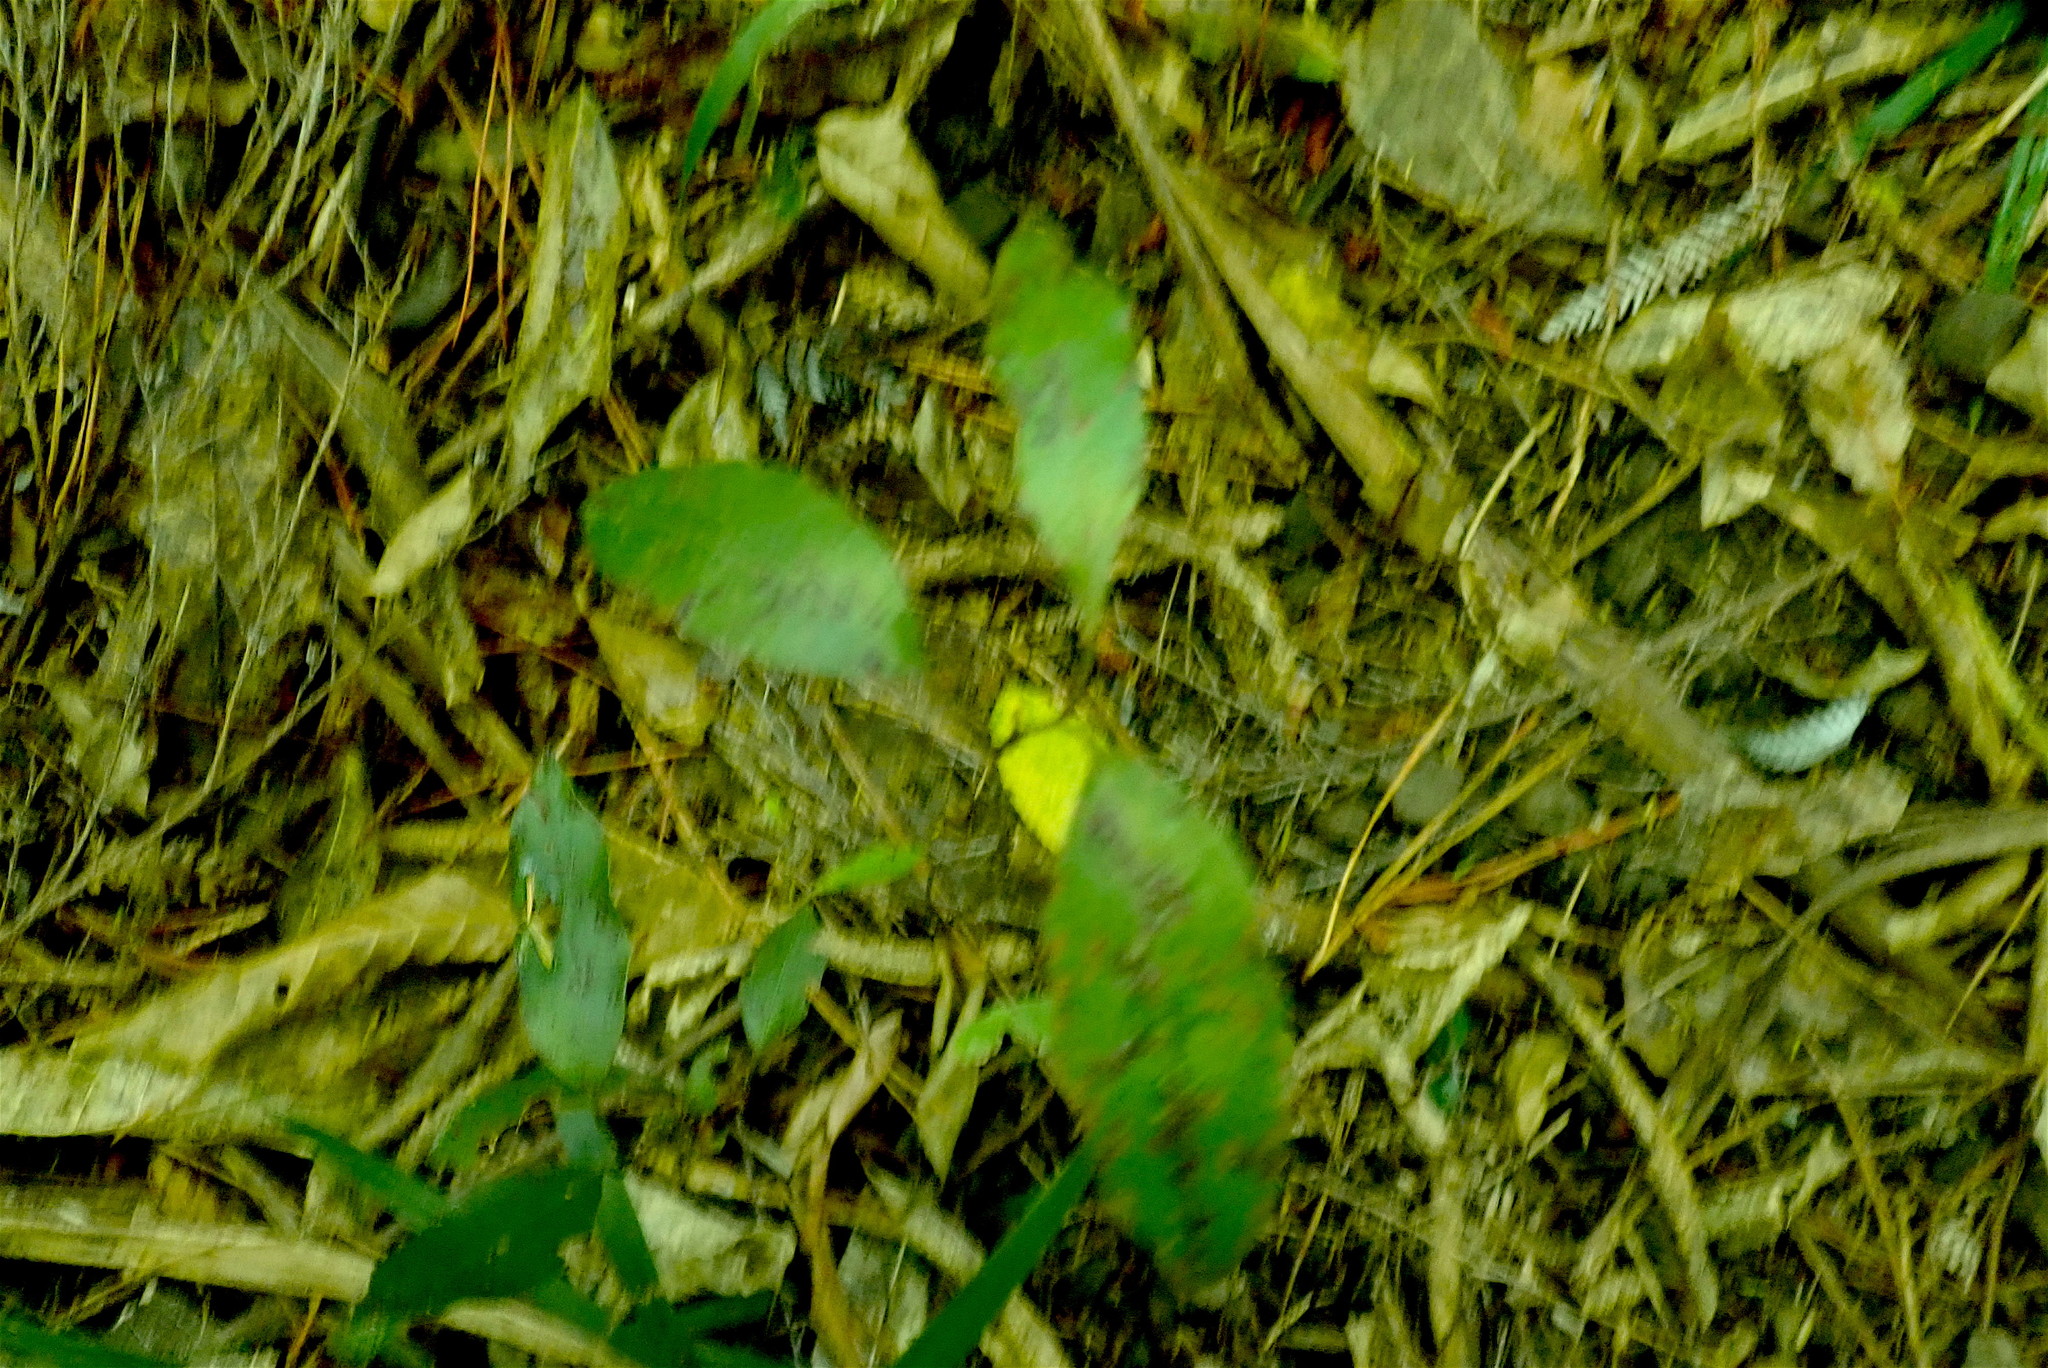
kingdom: Plantae
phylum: Tracheophyta
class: Liliopsida
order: Liliales
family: Ripogonaceae
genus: Ripogonum
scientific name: Ripogonum scandens
